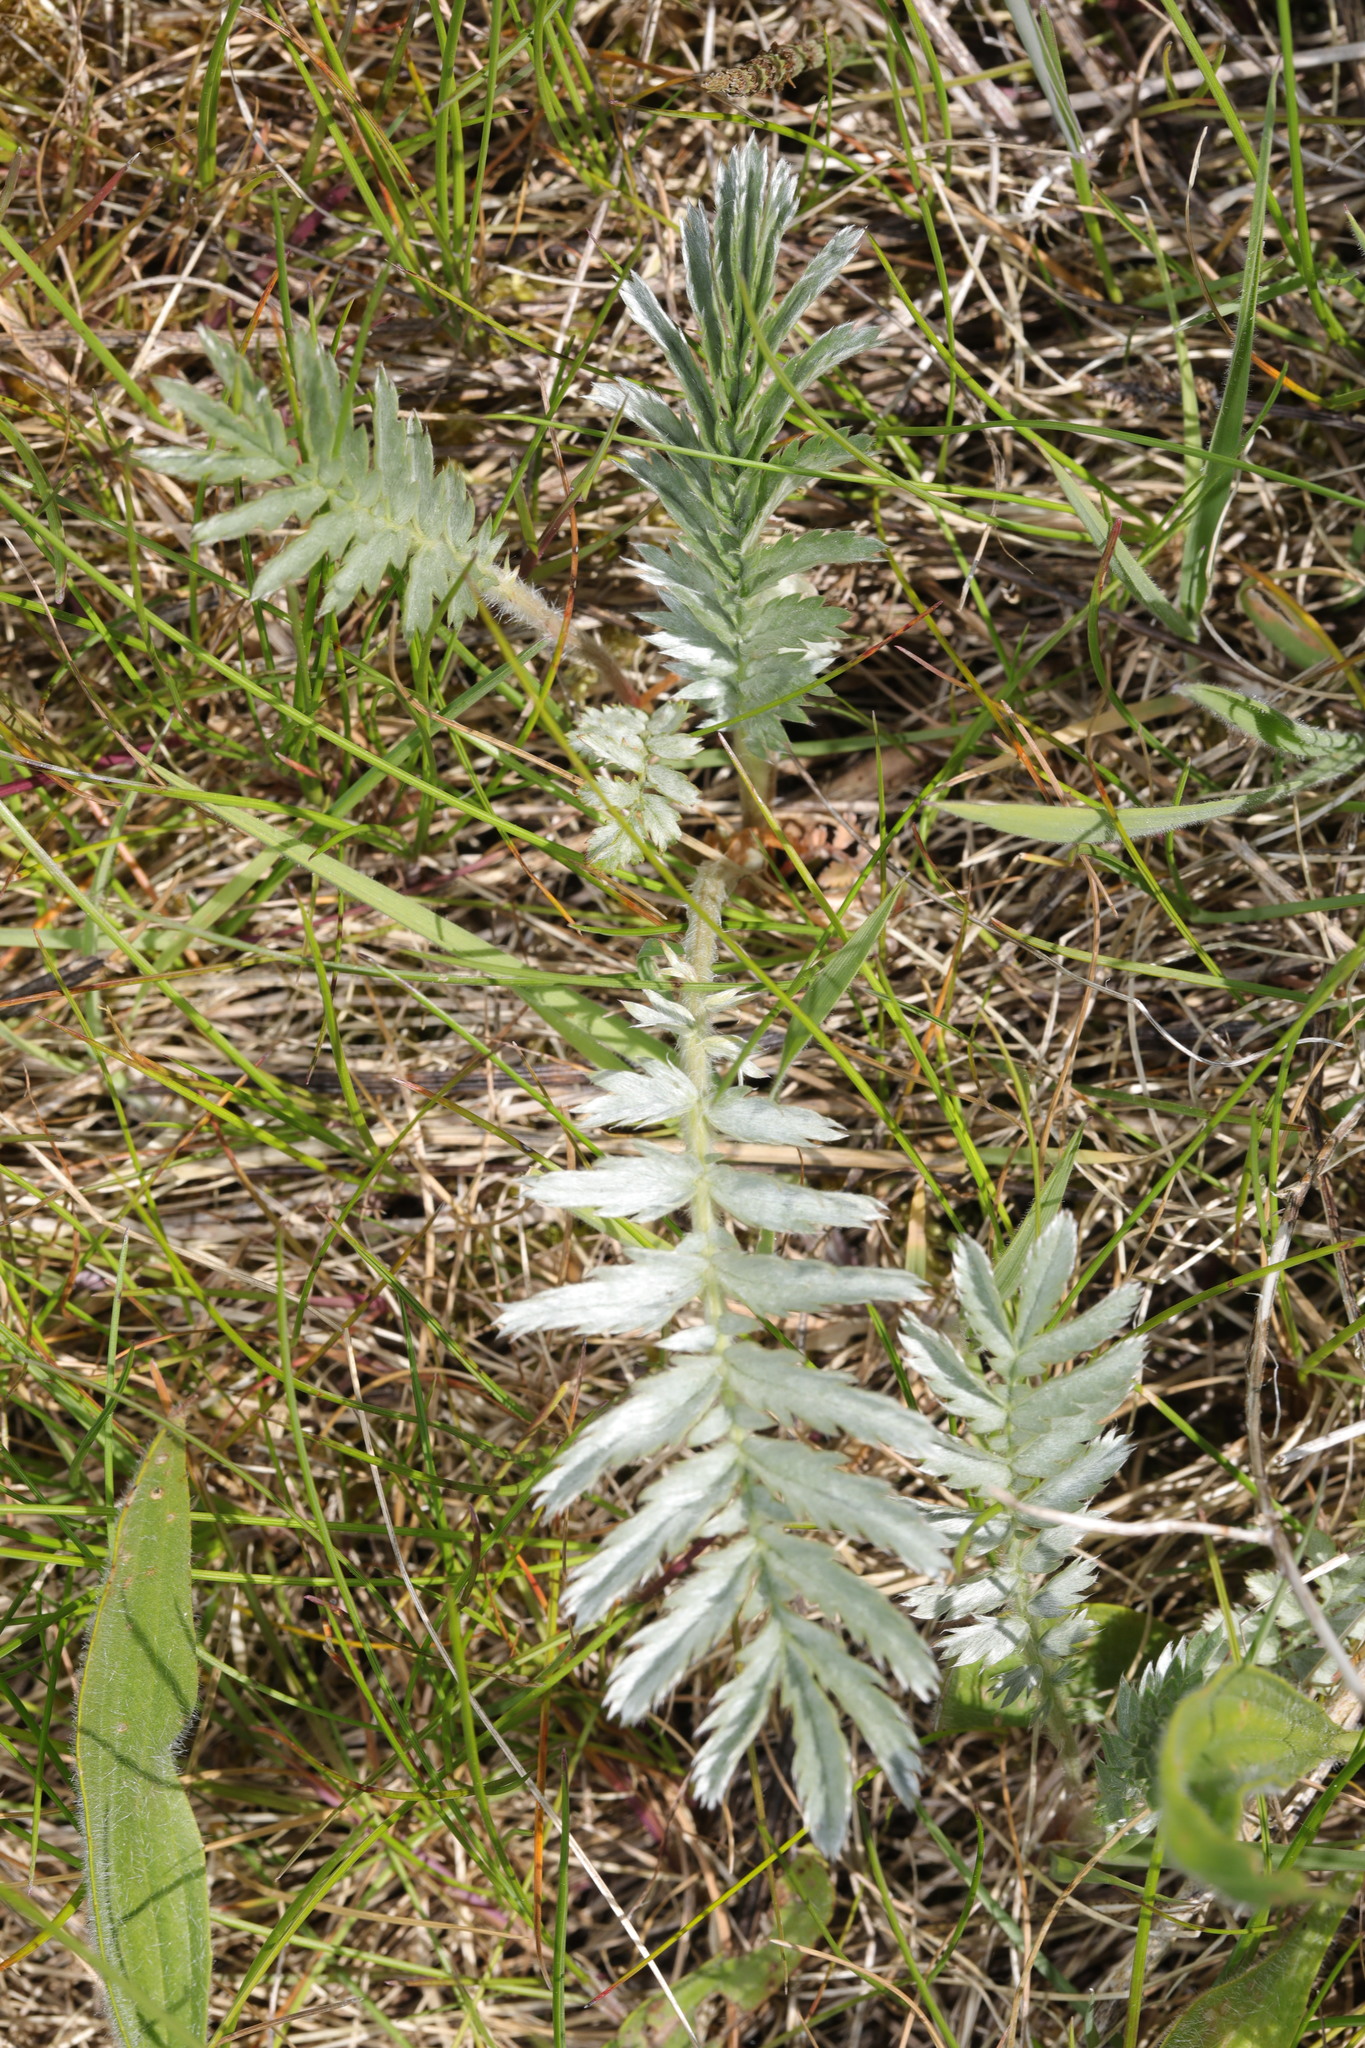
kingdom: Plantae
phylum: Tracheophyta
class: Magnoliopsida
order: Rosales
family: Rosaceae
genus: Argentina
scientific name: Argentina anserina
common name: Common silverweed
